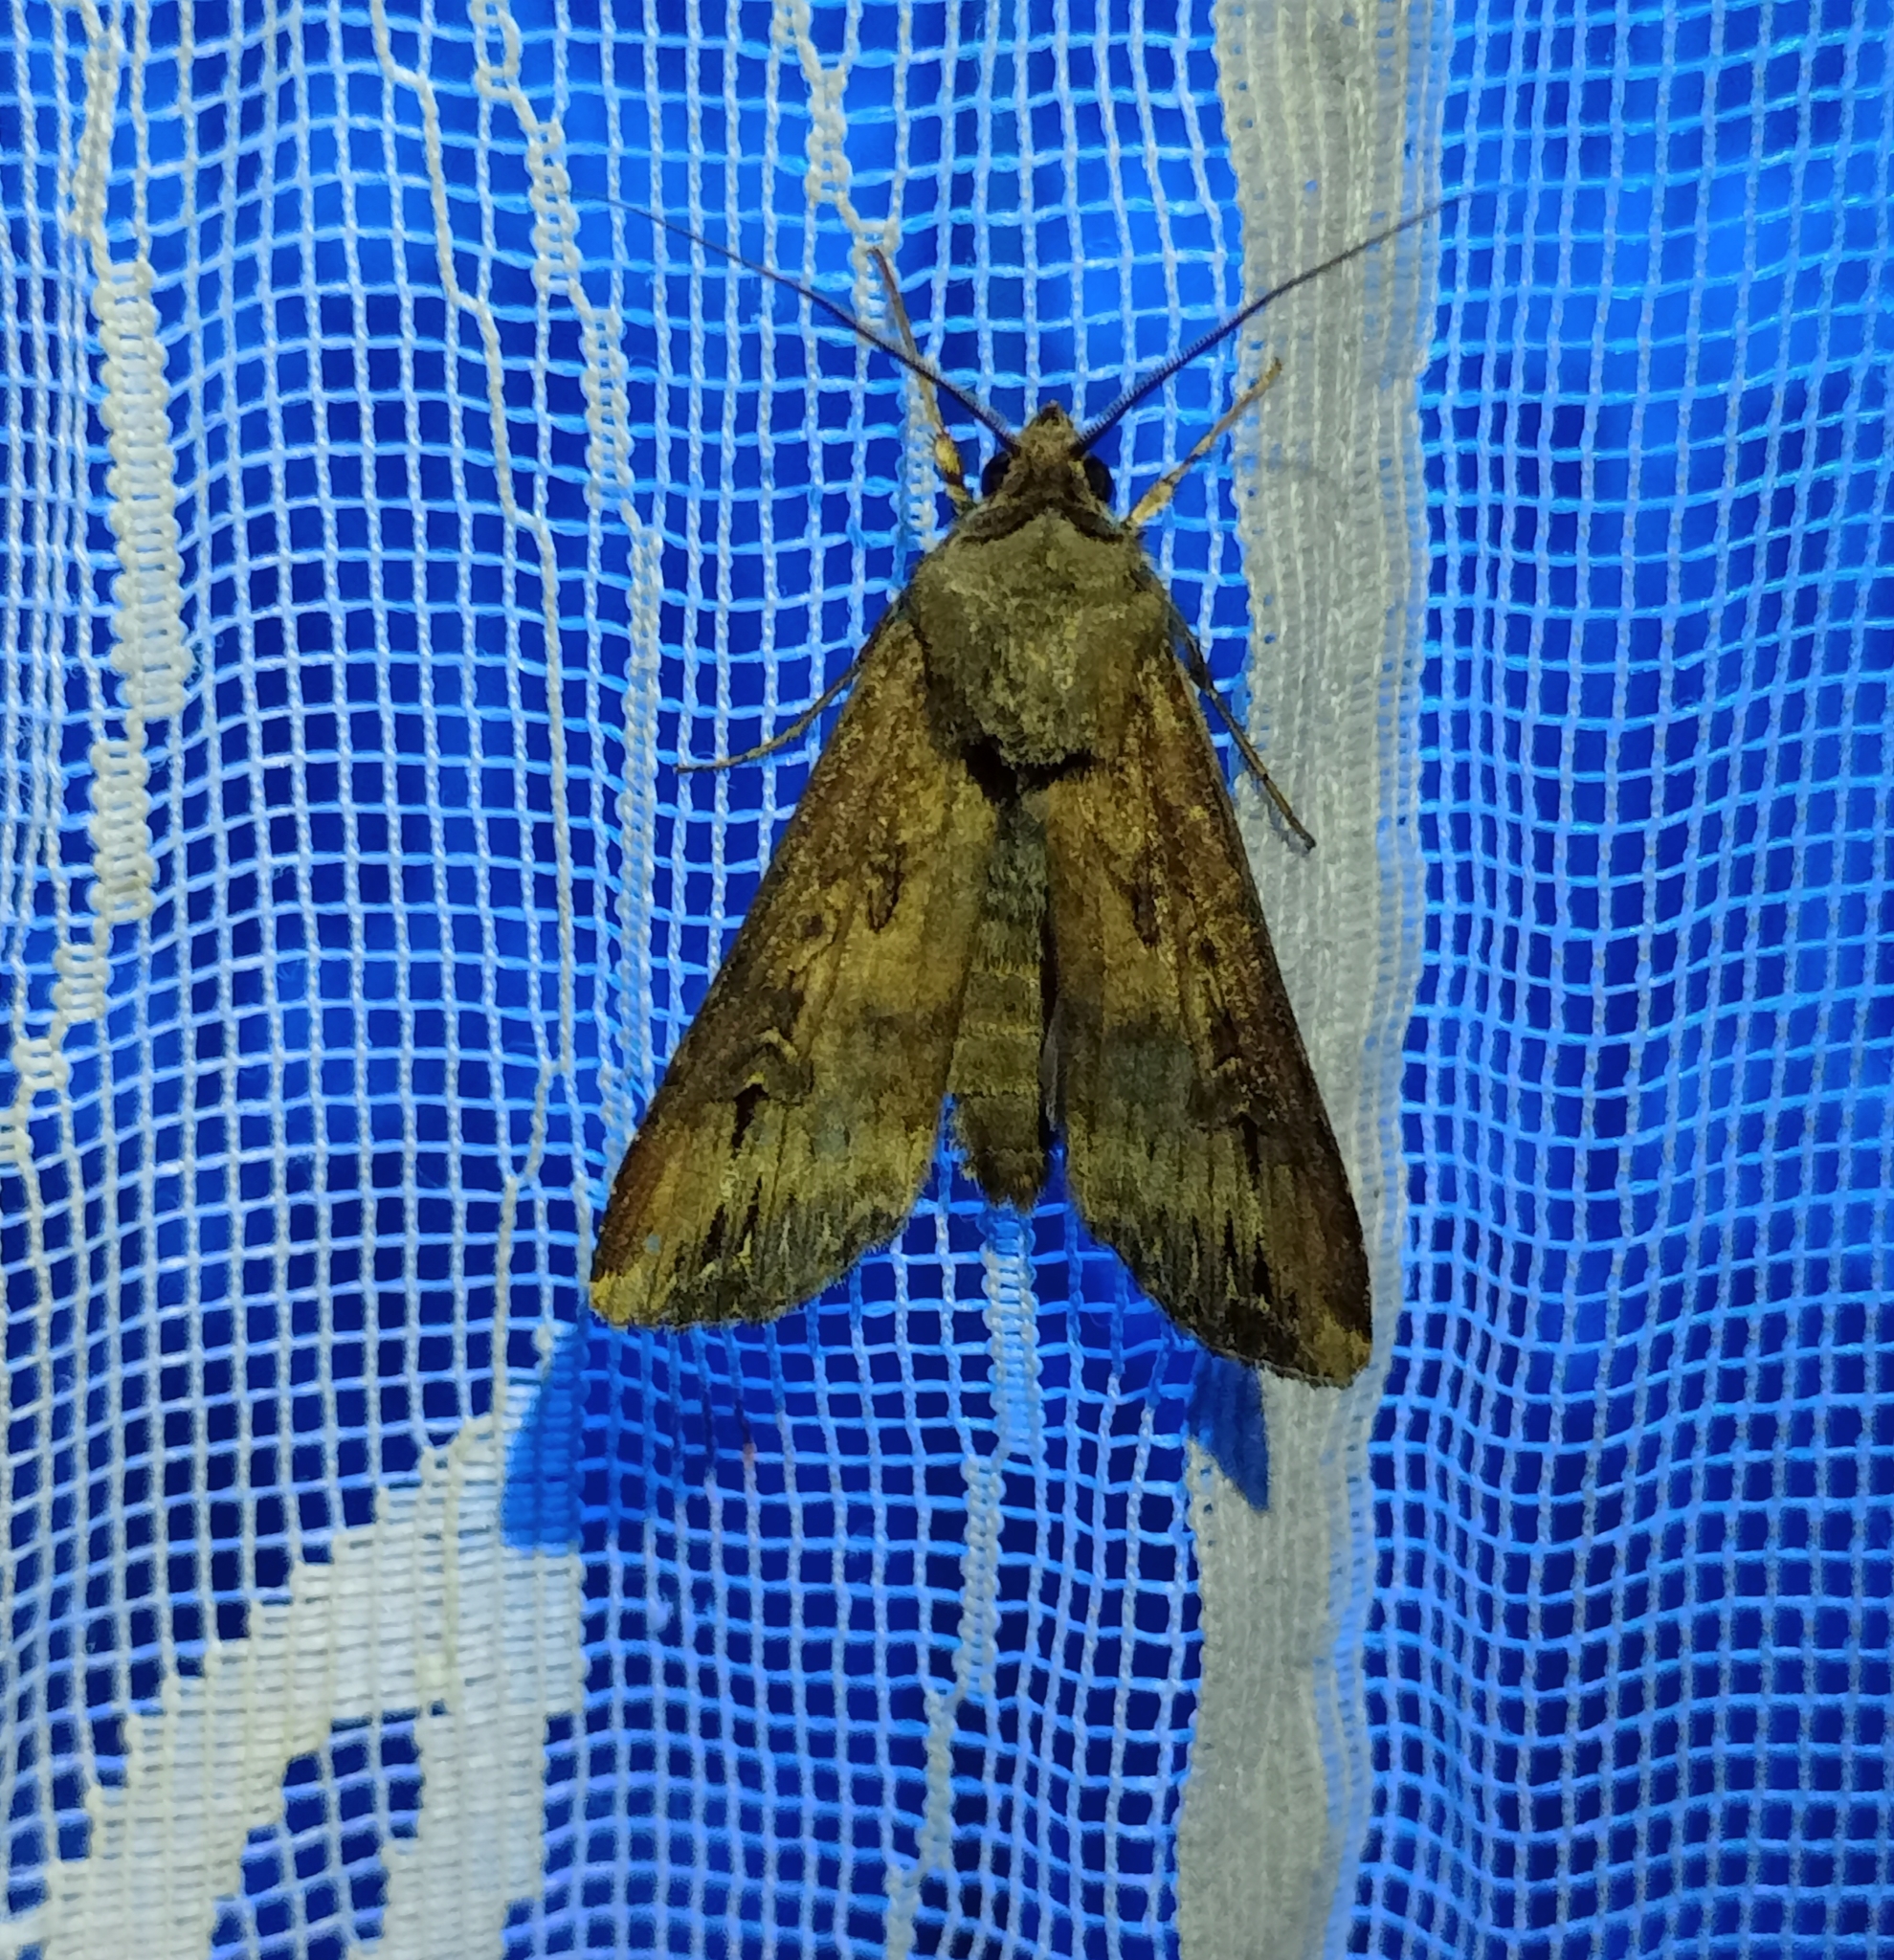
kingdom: Animalia
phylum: Arthropoda
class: Insecta
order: Lepidoptera
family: Noctuidae
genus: Agrotis
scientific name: Agrotis ipsilon
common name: Dark sword-grass
